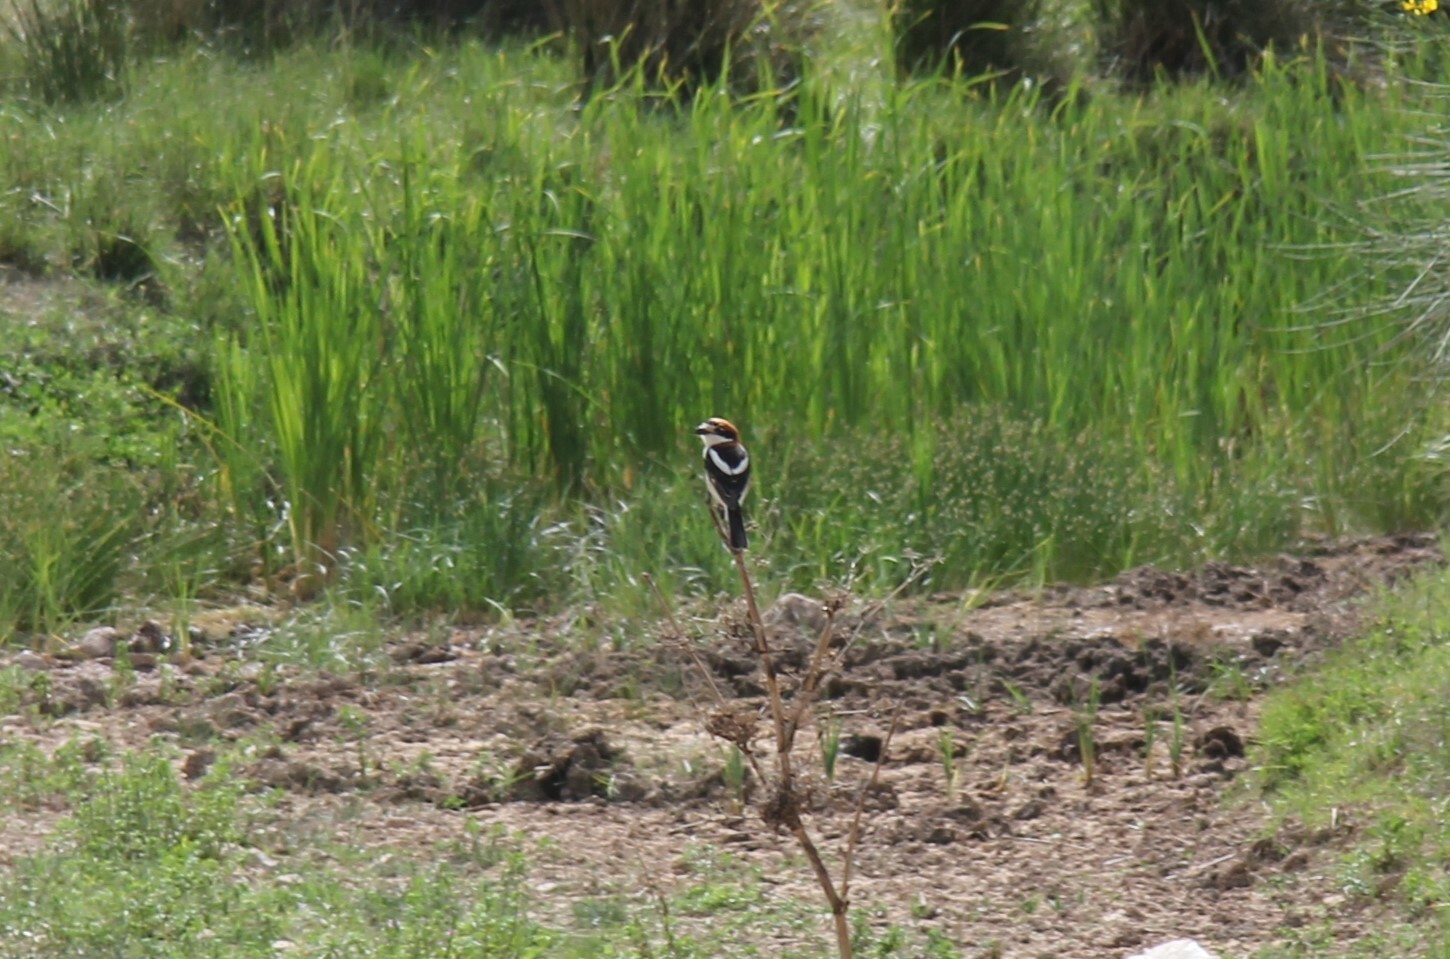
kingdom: Animalia
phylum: Chordata
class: Aves
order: Passeriformes
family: Laniidae
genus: Lanius
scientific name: Lanius senator
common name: Woodchat shrike
